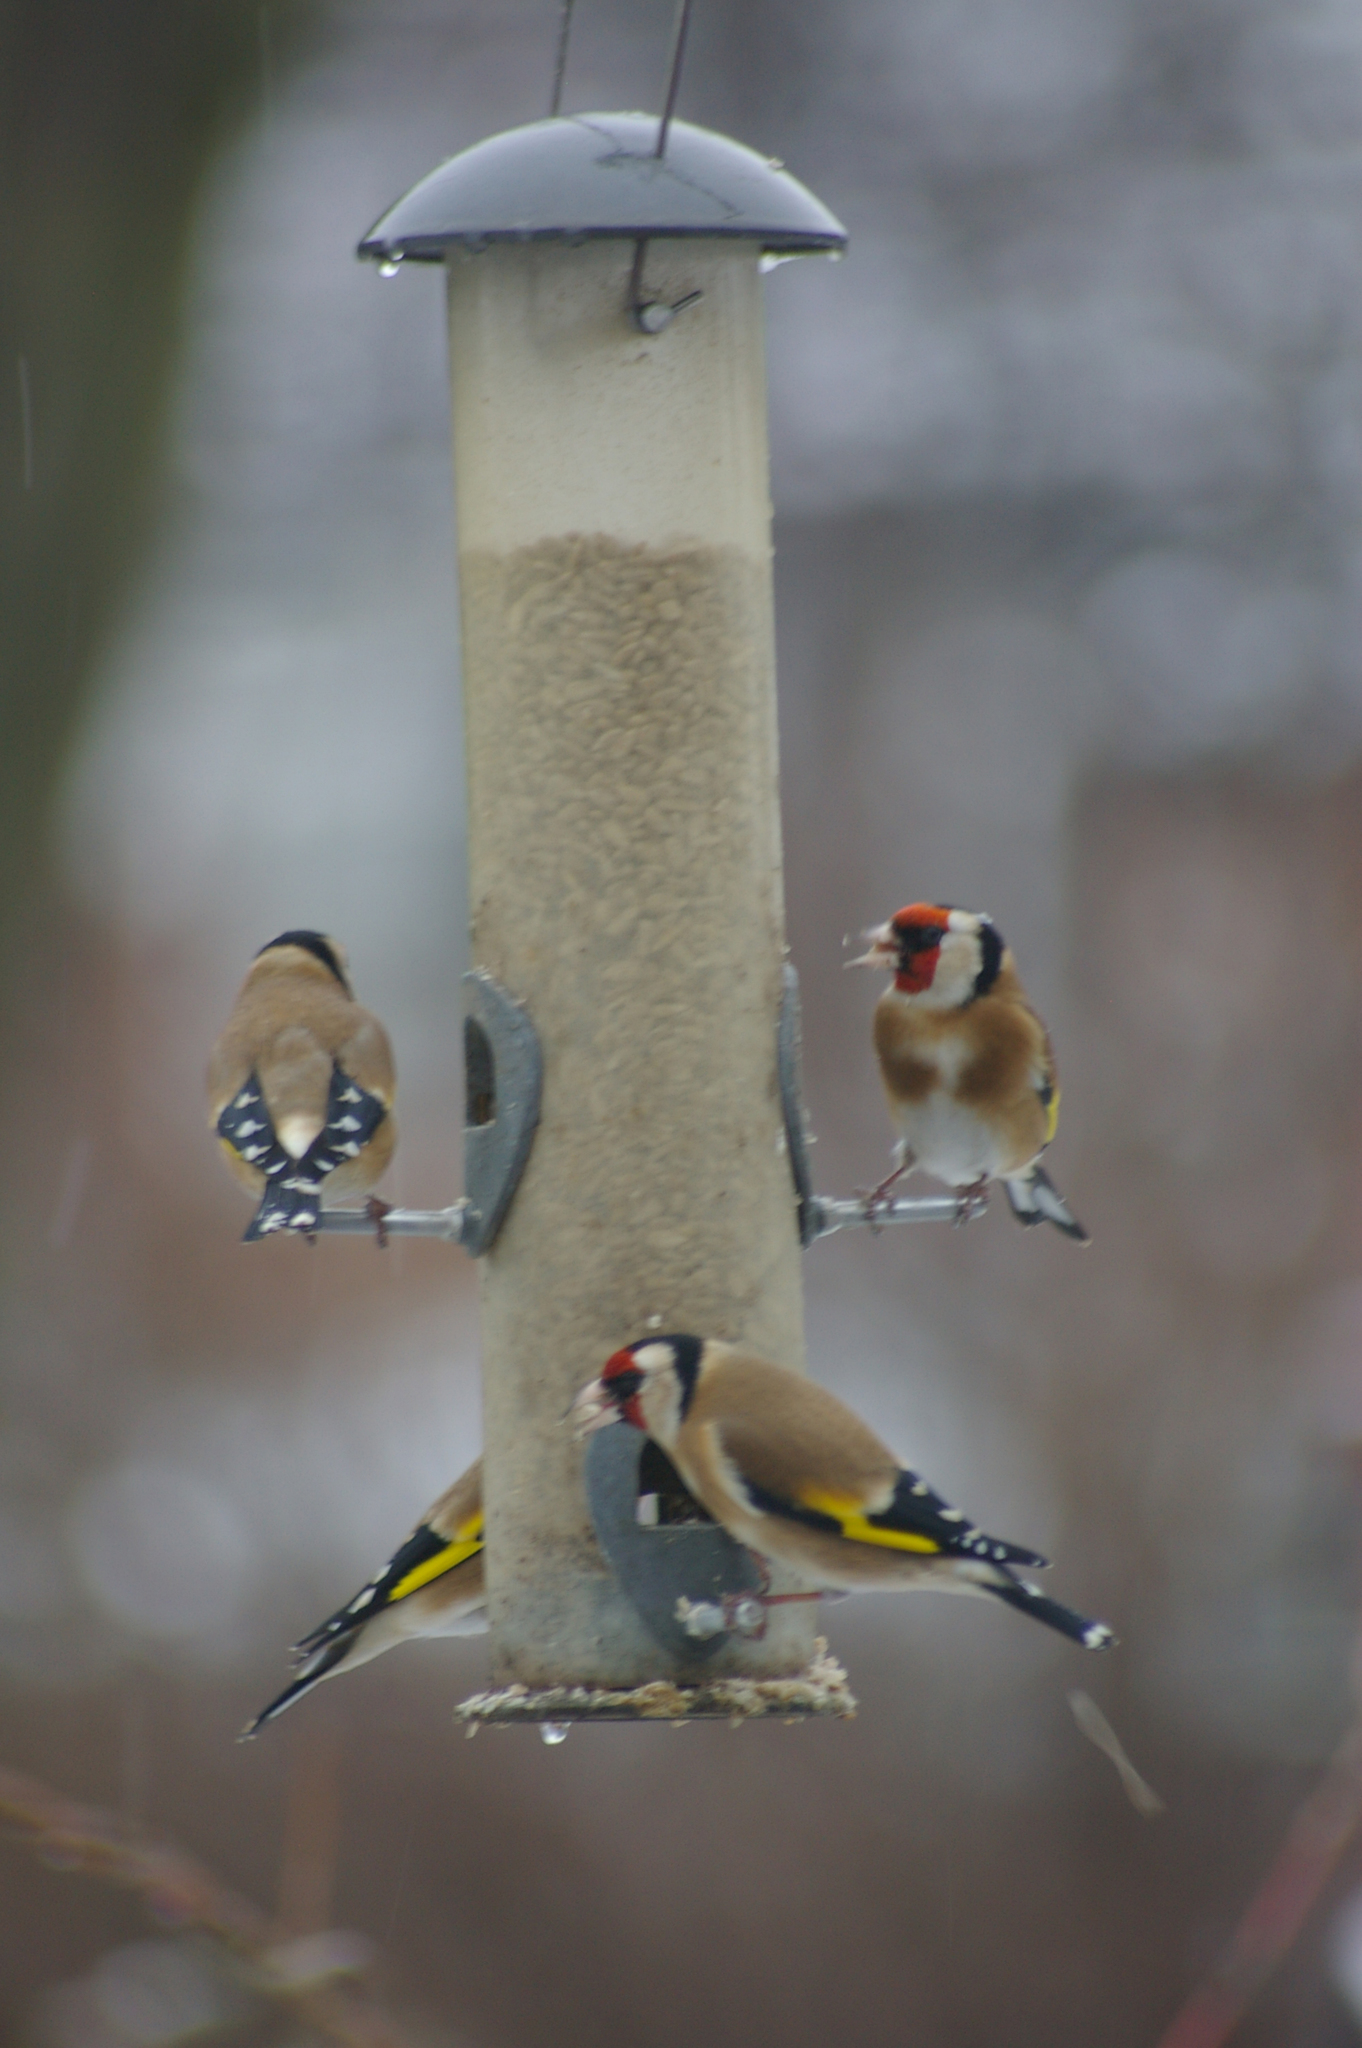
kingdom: Animalia
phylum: Chordata
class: Aves
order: Passeriformes
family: Fringillidae
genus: Carduelis
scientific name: Carduelis carduelis
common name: European goldfinch
